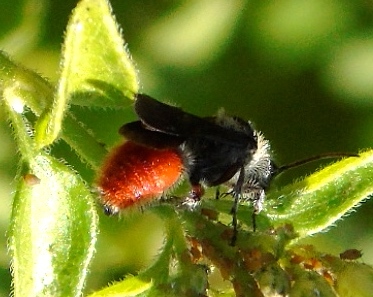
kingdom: Animalia
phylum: Arthropoda
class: Insecta
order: Hymenoptera
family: Mutillidae
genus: Dasymutilla
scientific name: Dasymutilla foxi
